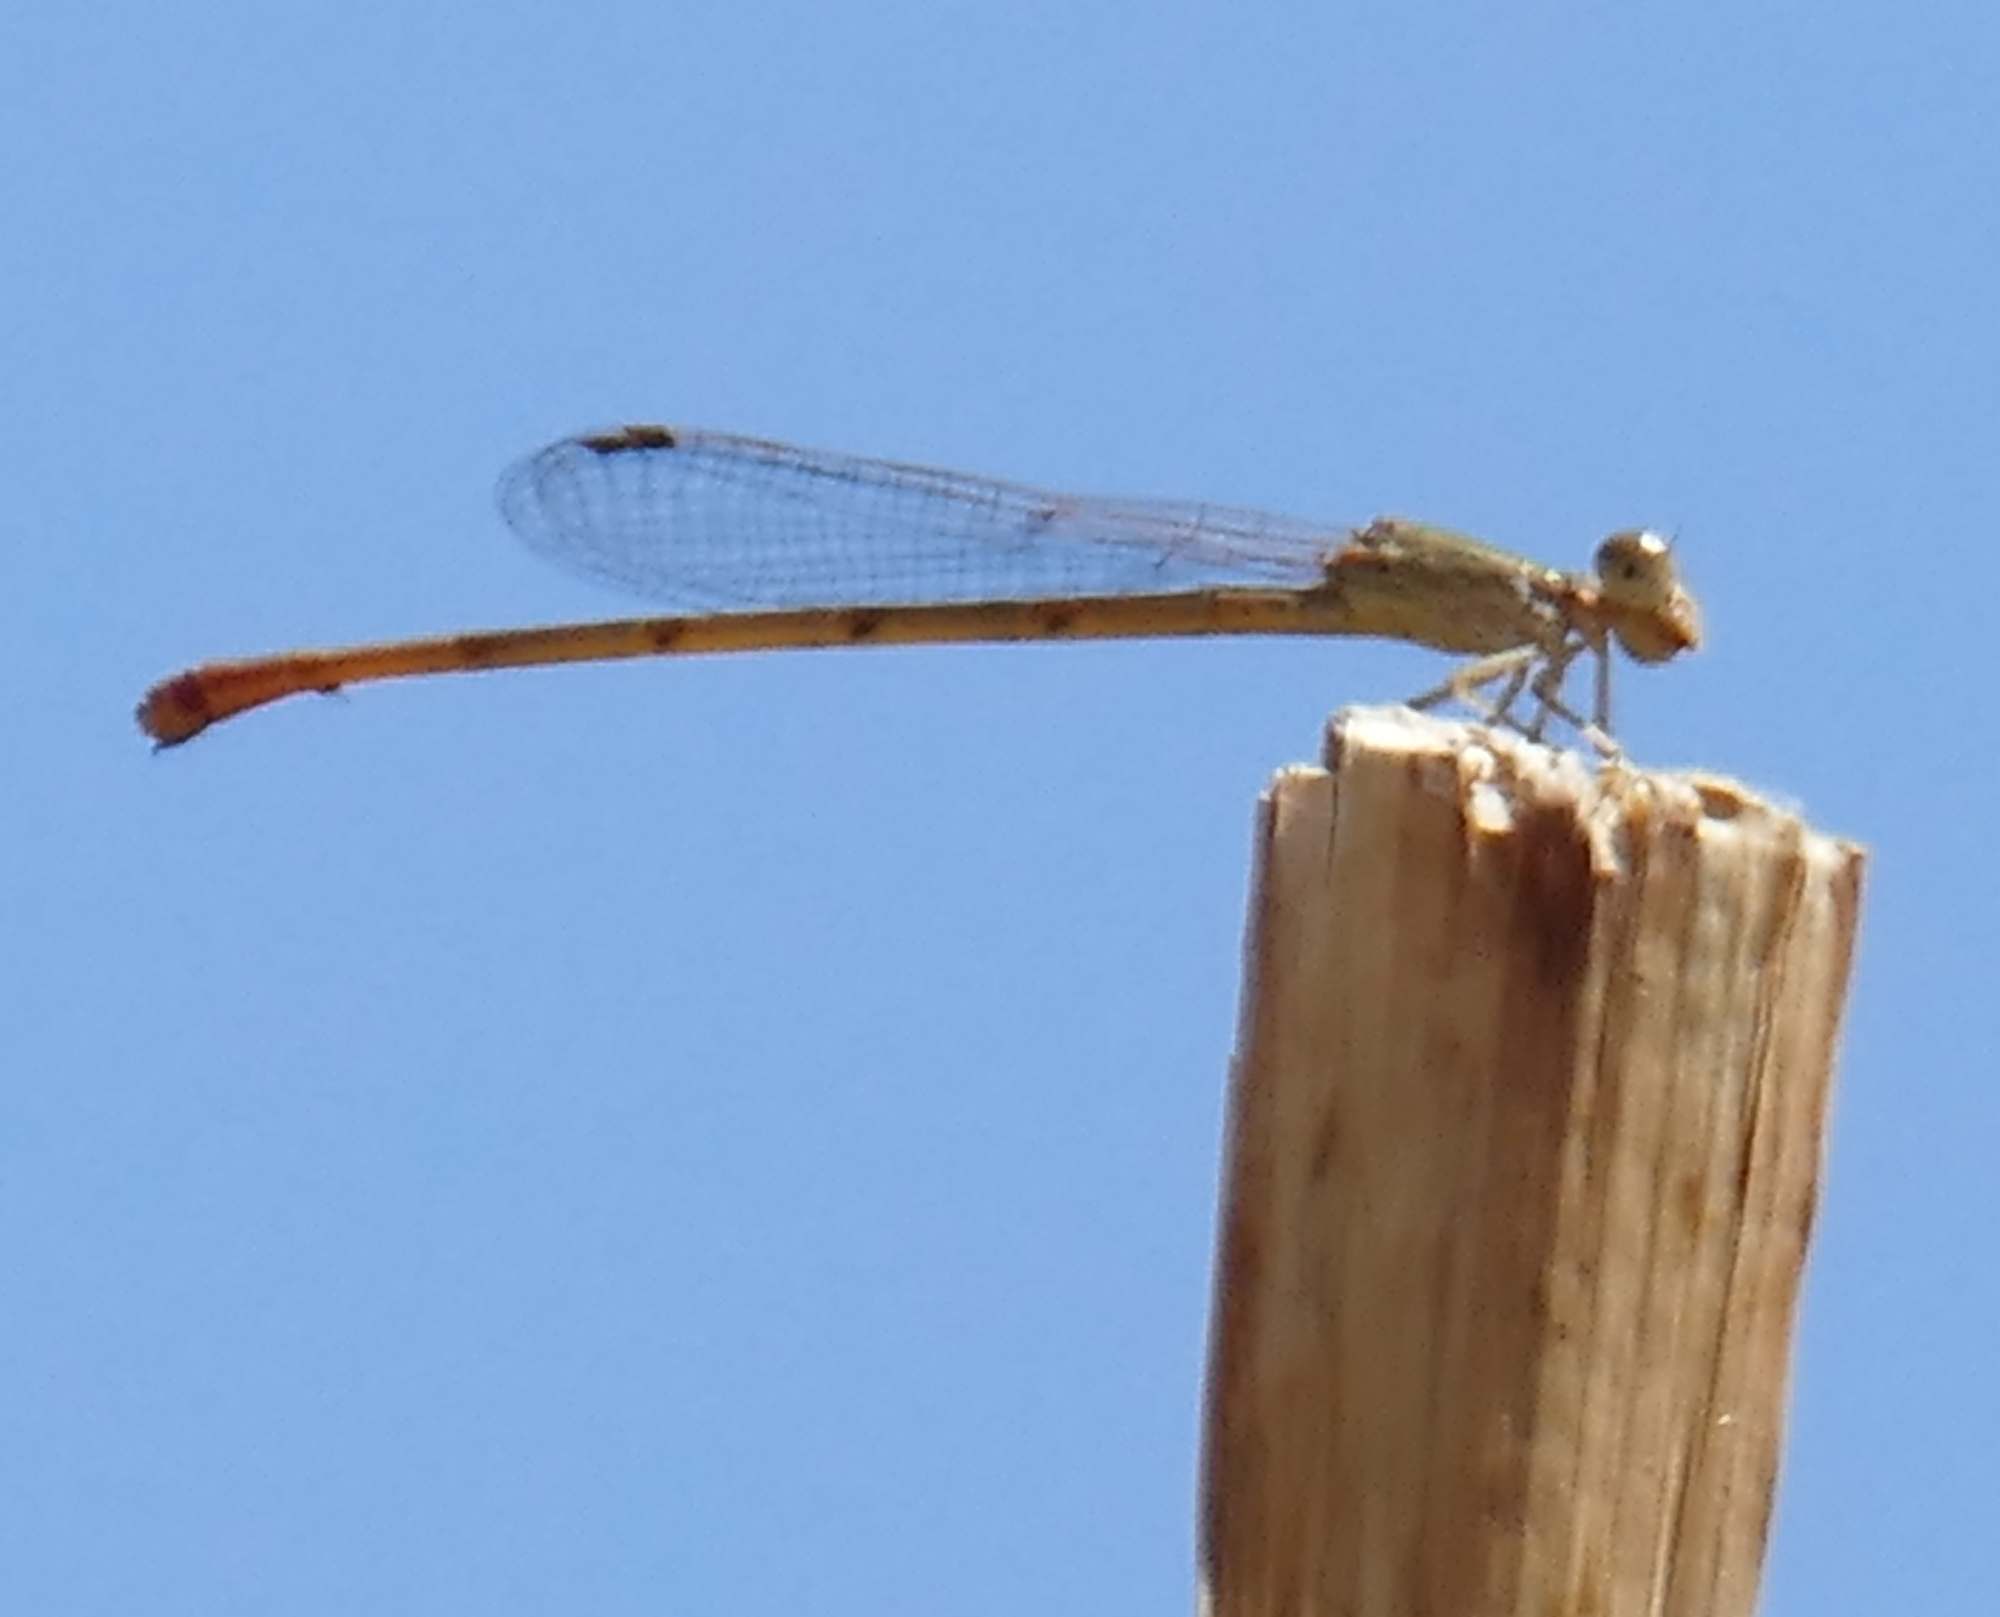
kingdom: Animalia
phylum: Arthropoda
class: Insecta
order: Odonata
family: Coenagrionidae
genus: Telebasis
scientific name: Telebasis salva
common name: Desert firetail
